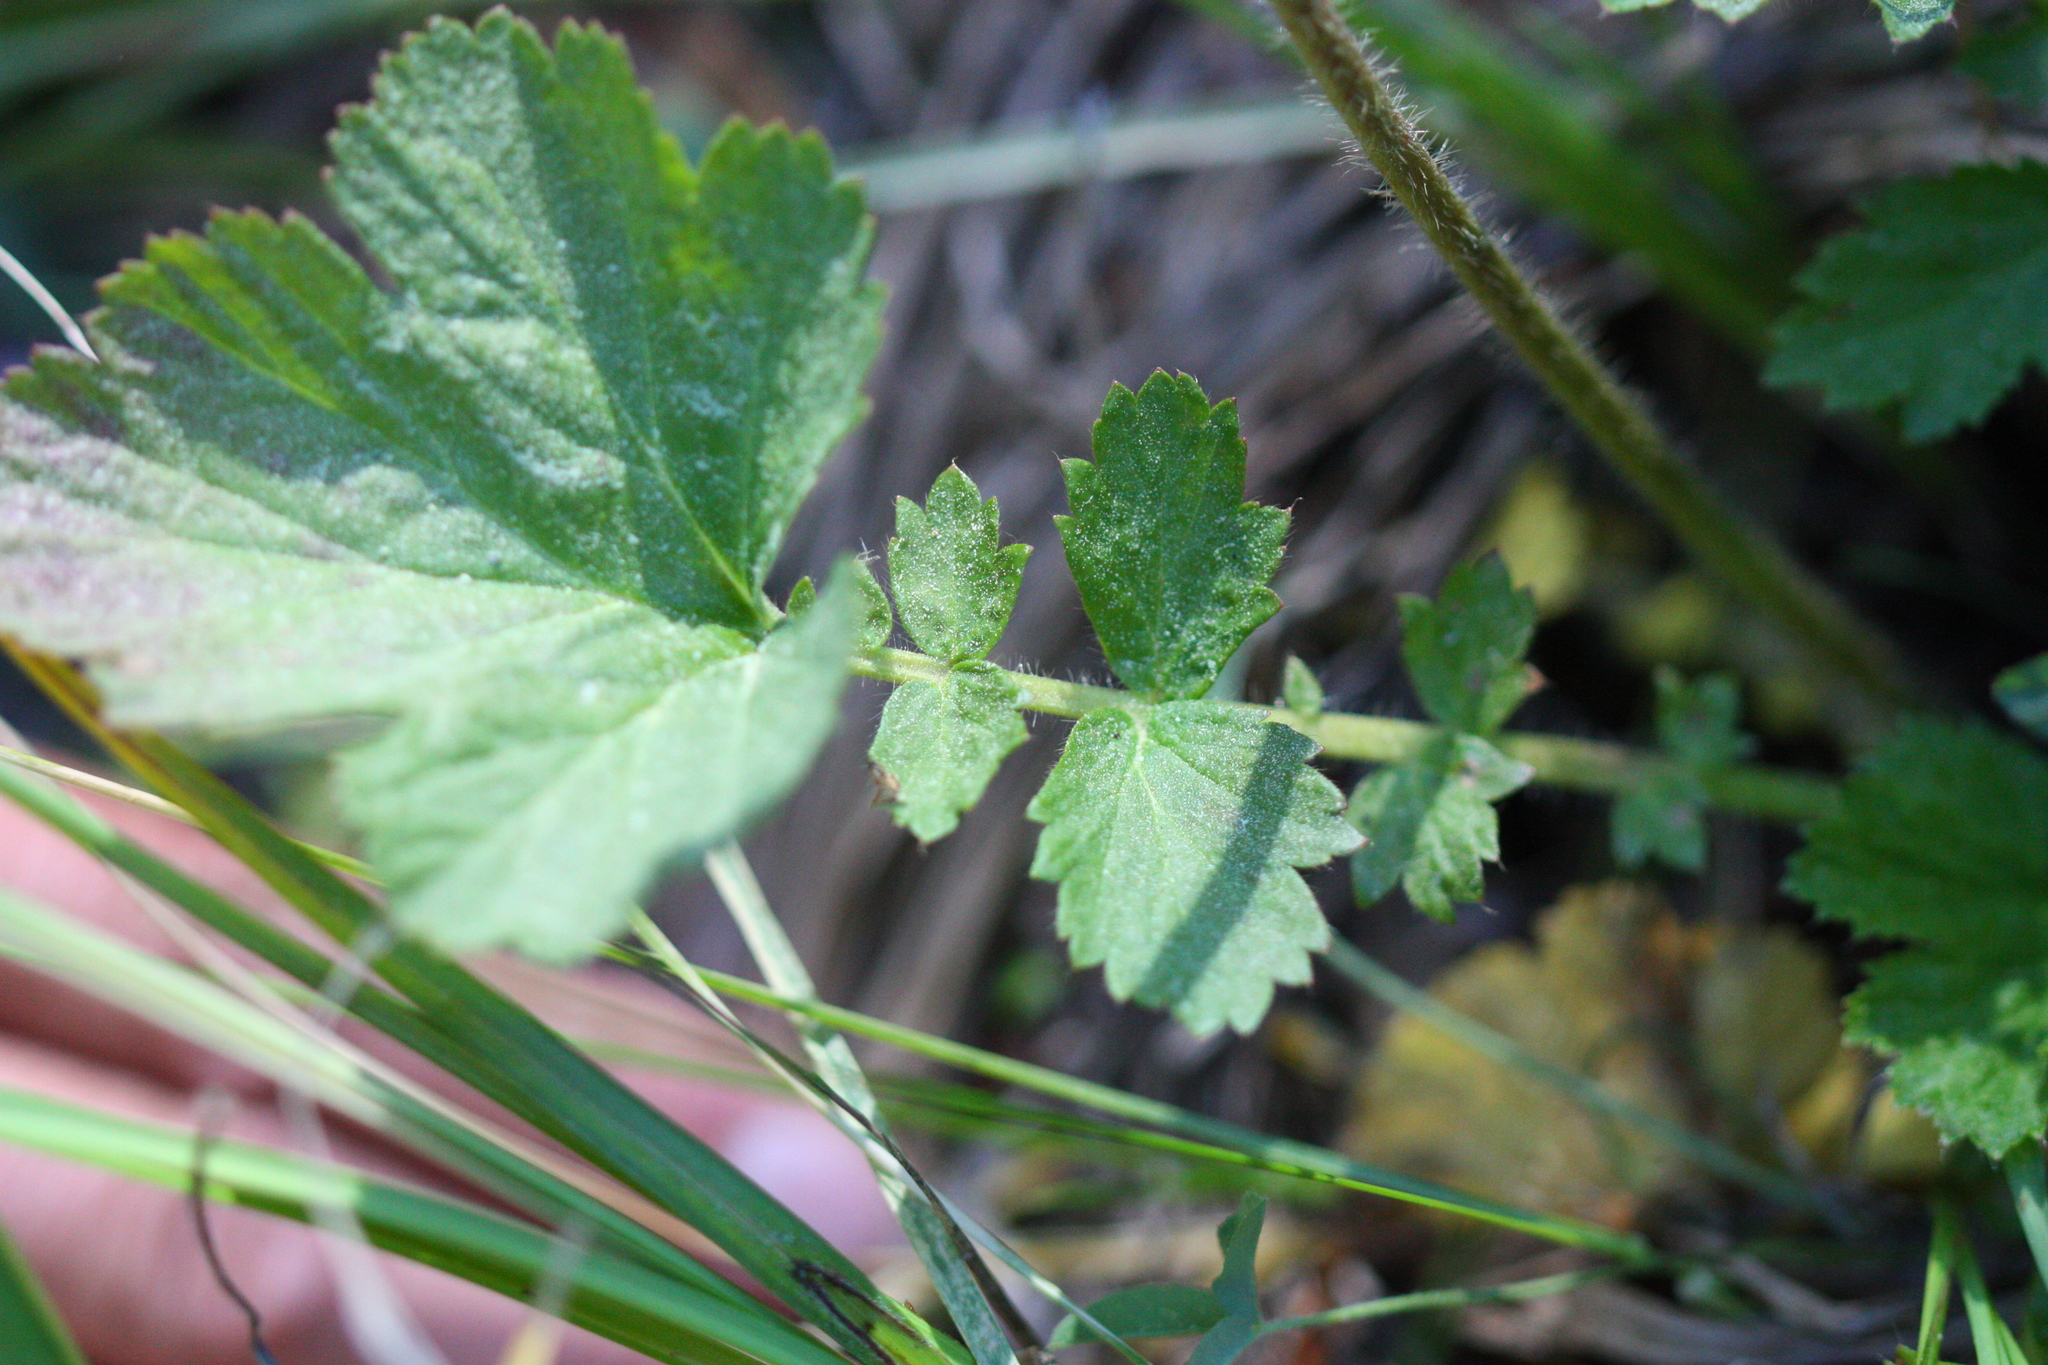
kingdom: Plantae
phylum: Tracheophyta
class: Magnoliopsida
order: Rosales
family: Rosaceae
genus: Geum
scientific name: Geum macrophyllum
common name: Large-leaved avens
